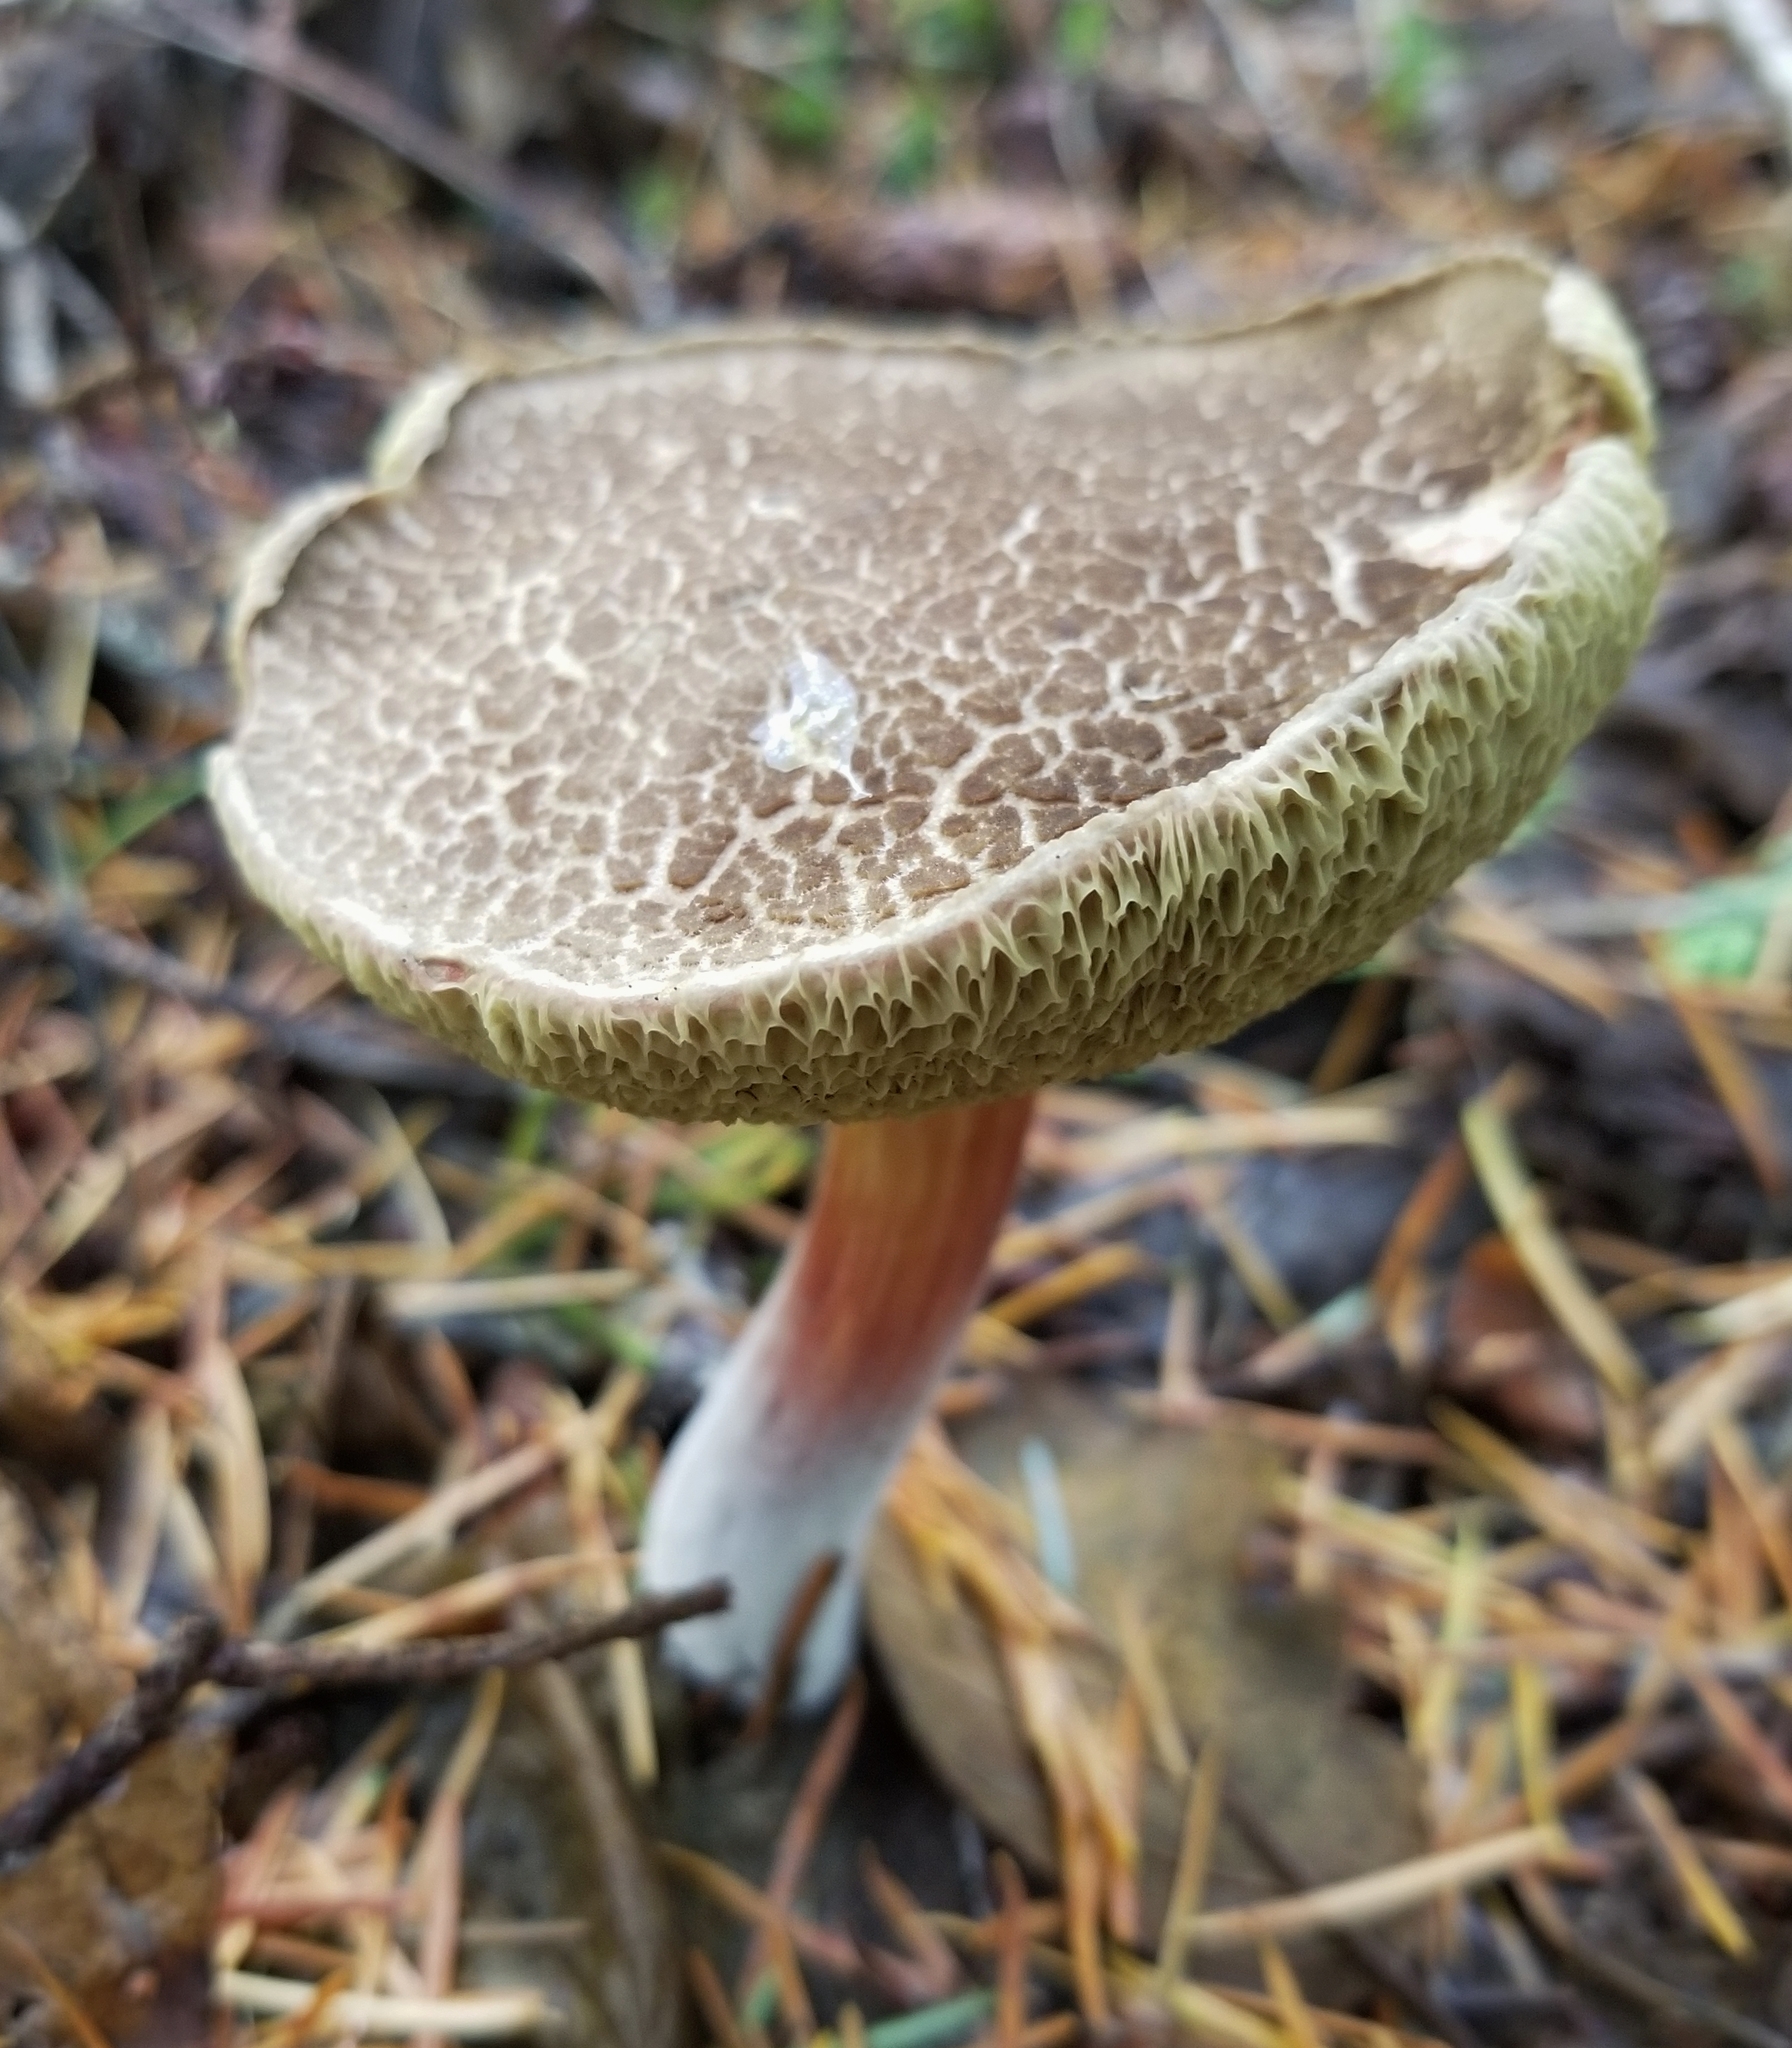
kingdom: Fungi
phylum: Basidiomycota
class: Agaricomycetes
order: Boletales
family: Boletaceae
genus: Xerocomellus
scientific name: Xerocomellus diffractus
